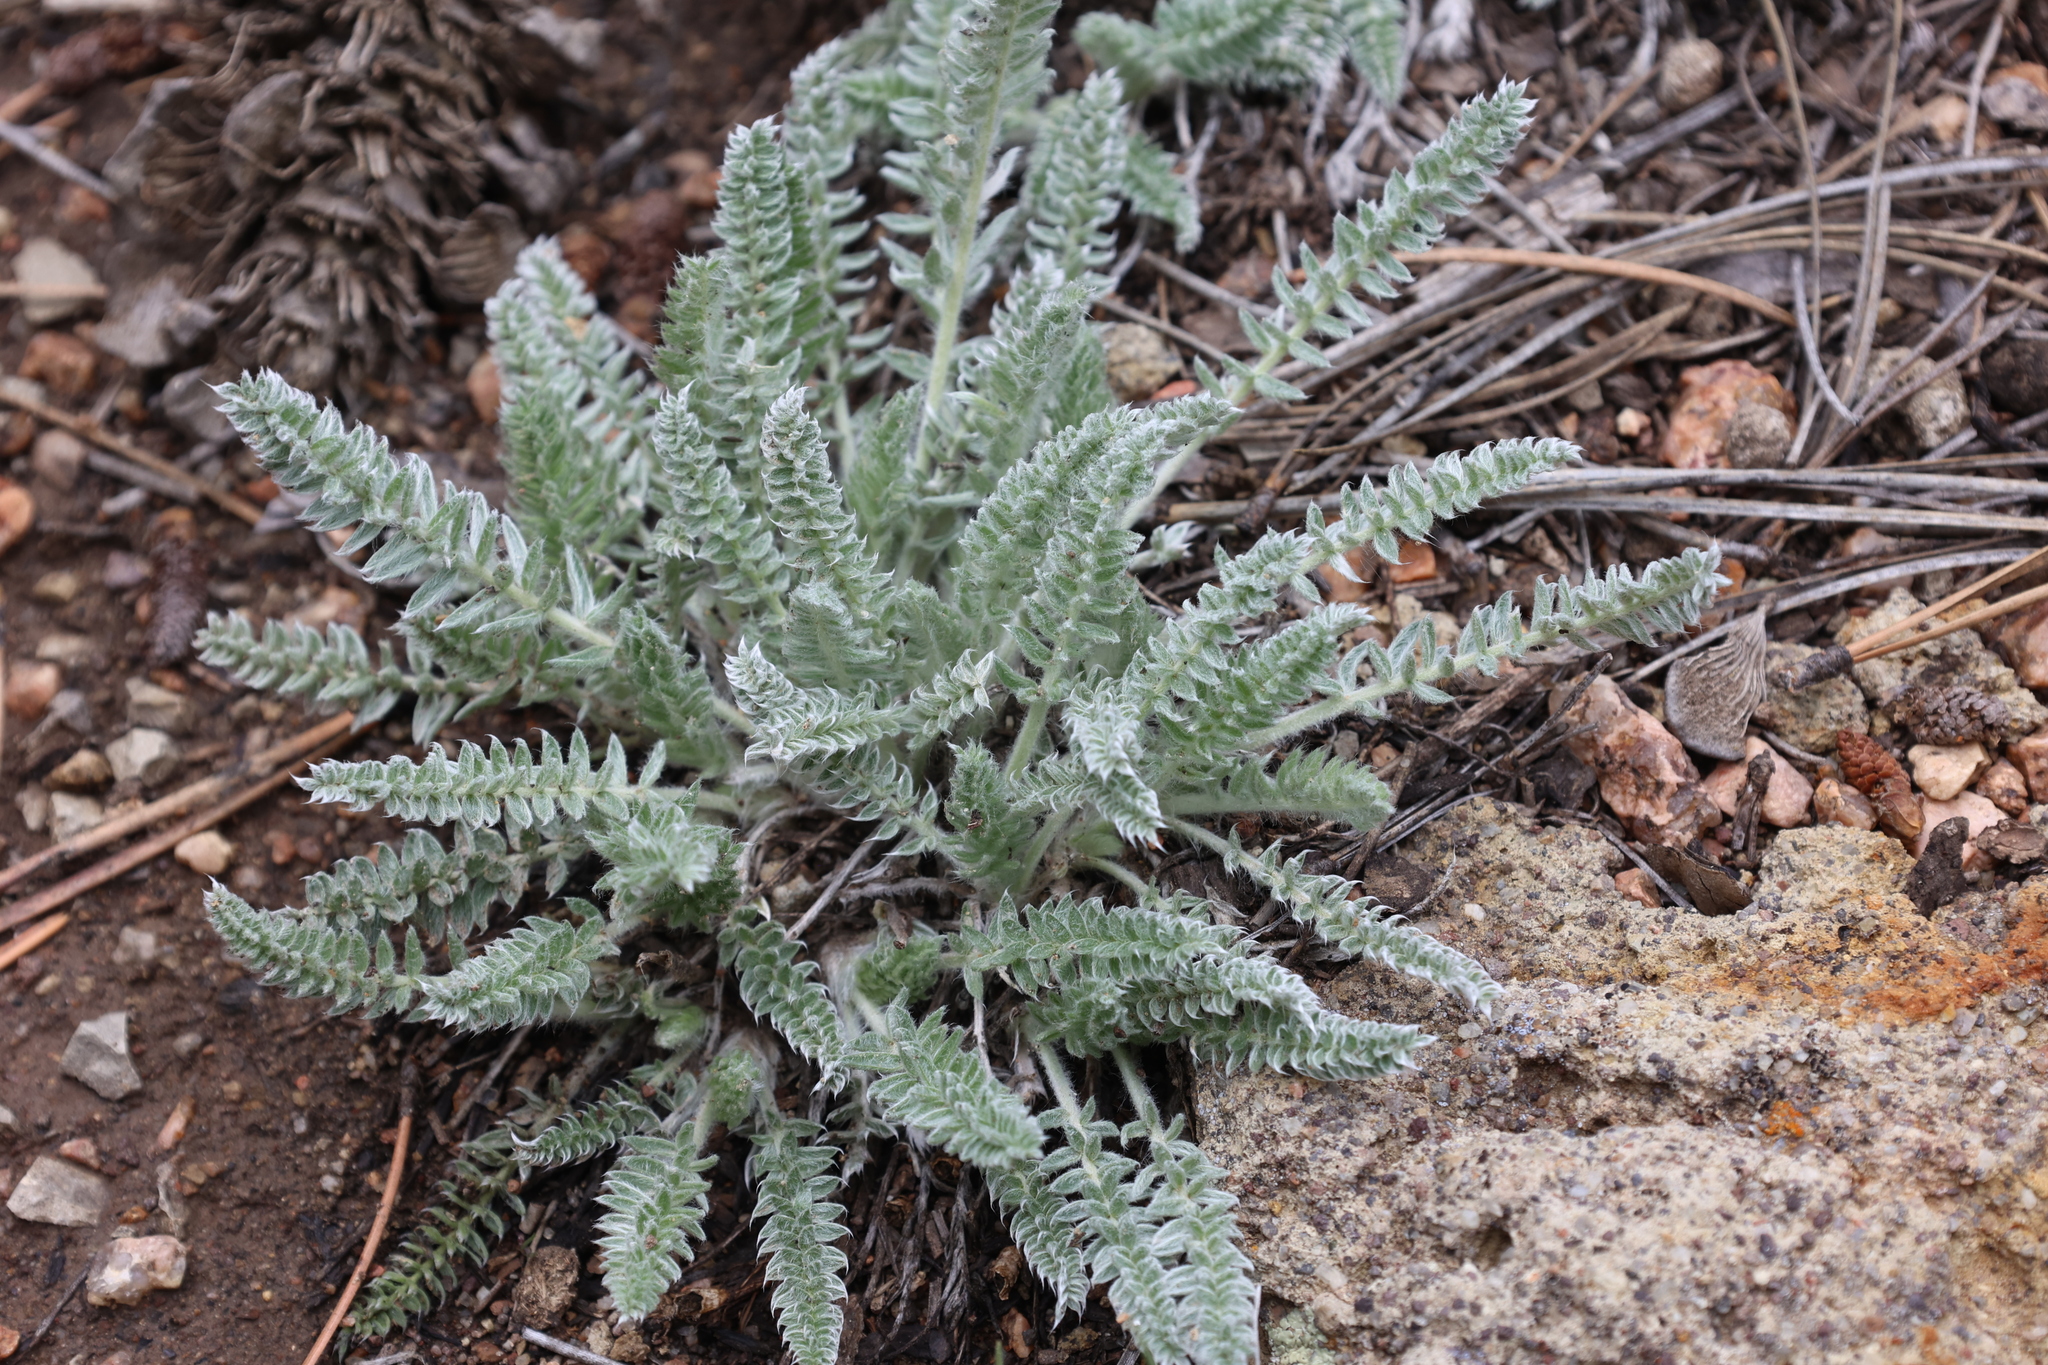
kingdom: Plantae
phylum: Tracheophyta
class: Magnoliopsida
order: Fabales
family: Fabaceae
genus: Oxytropis
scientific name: Oxytropis splendens
